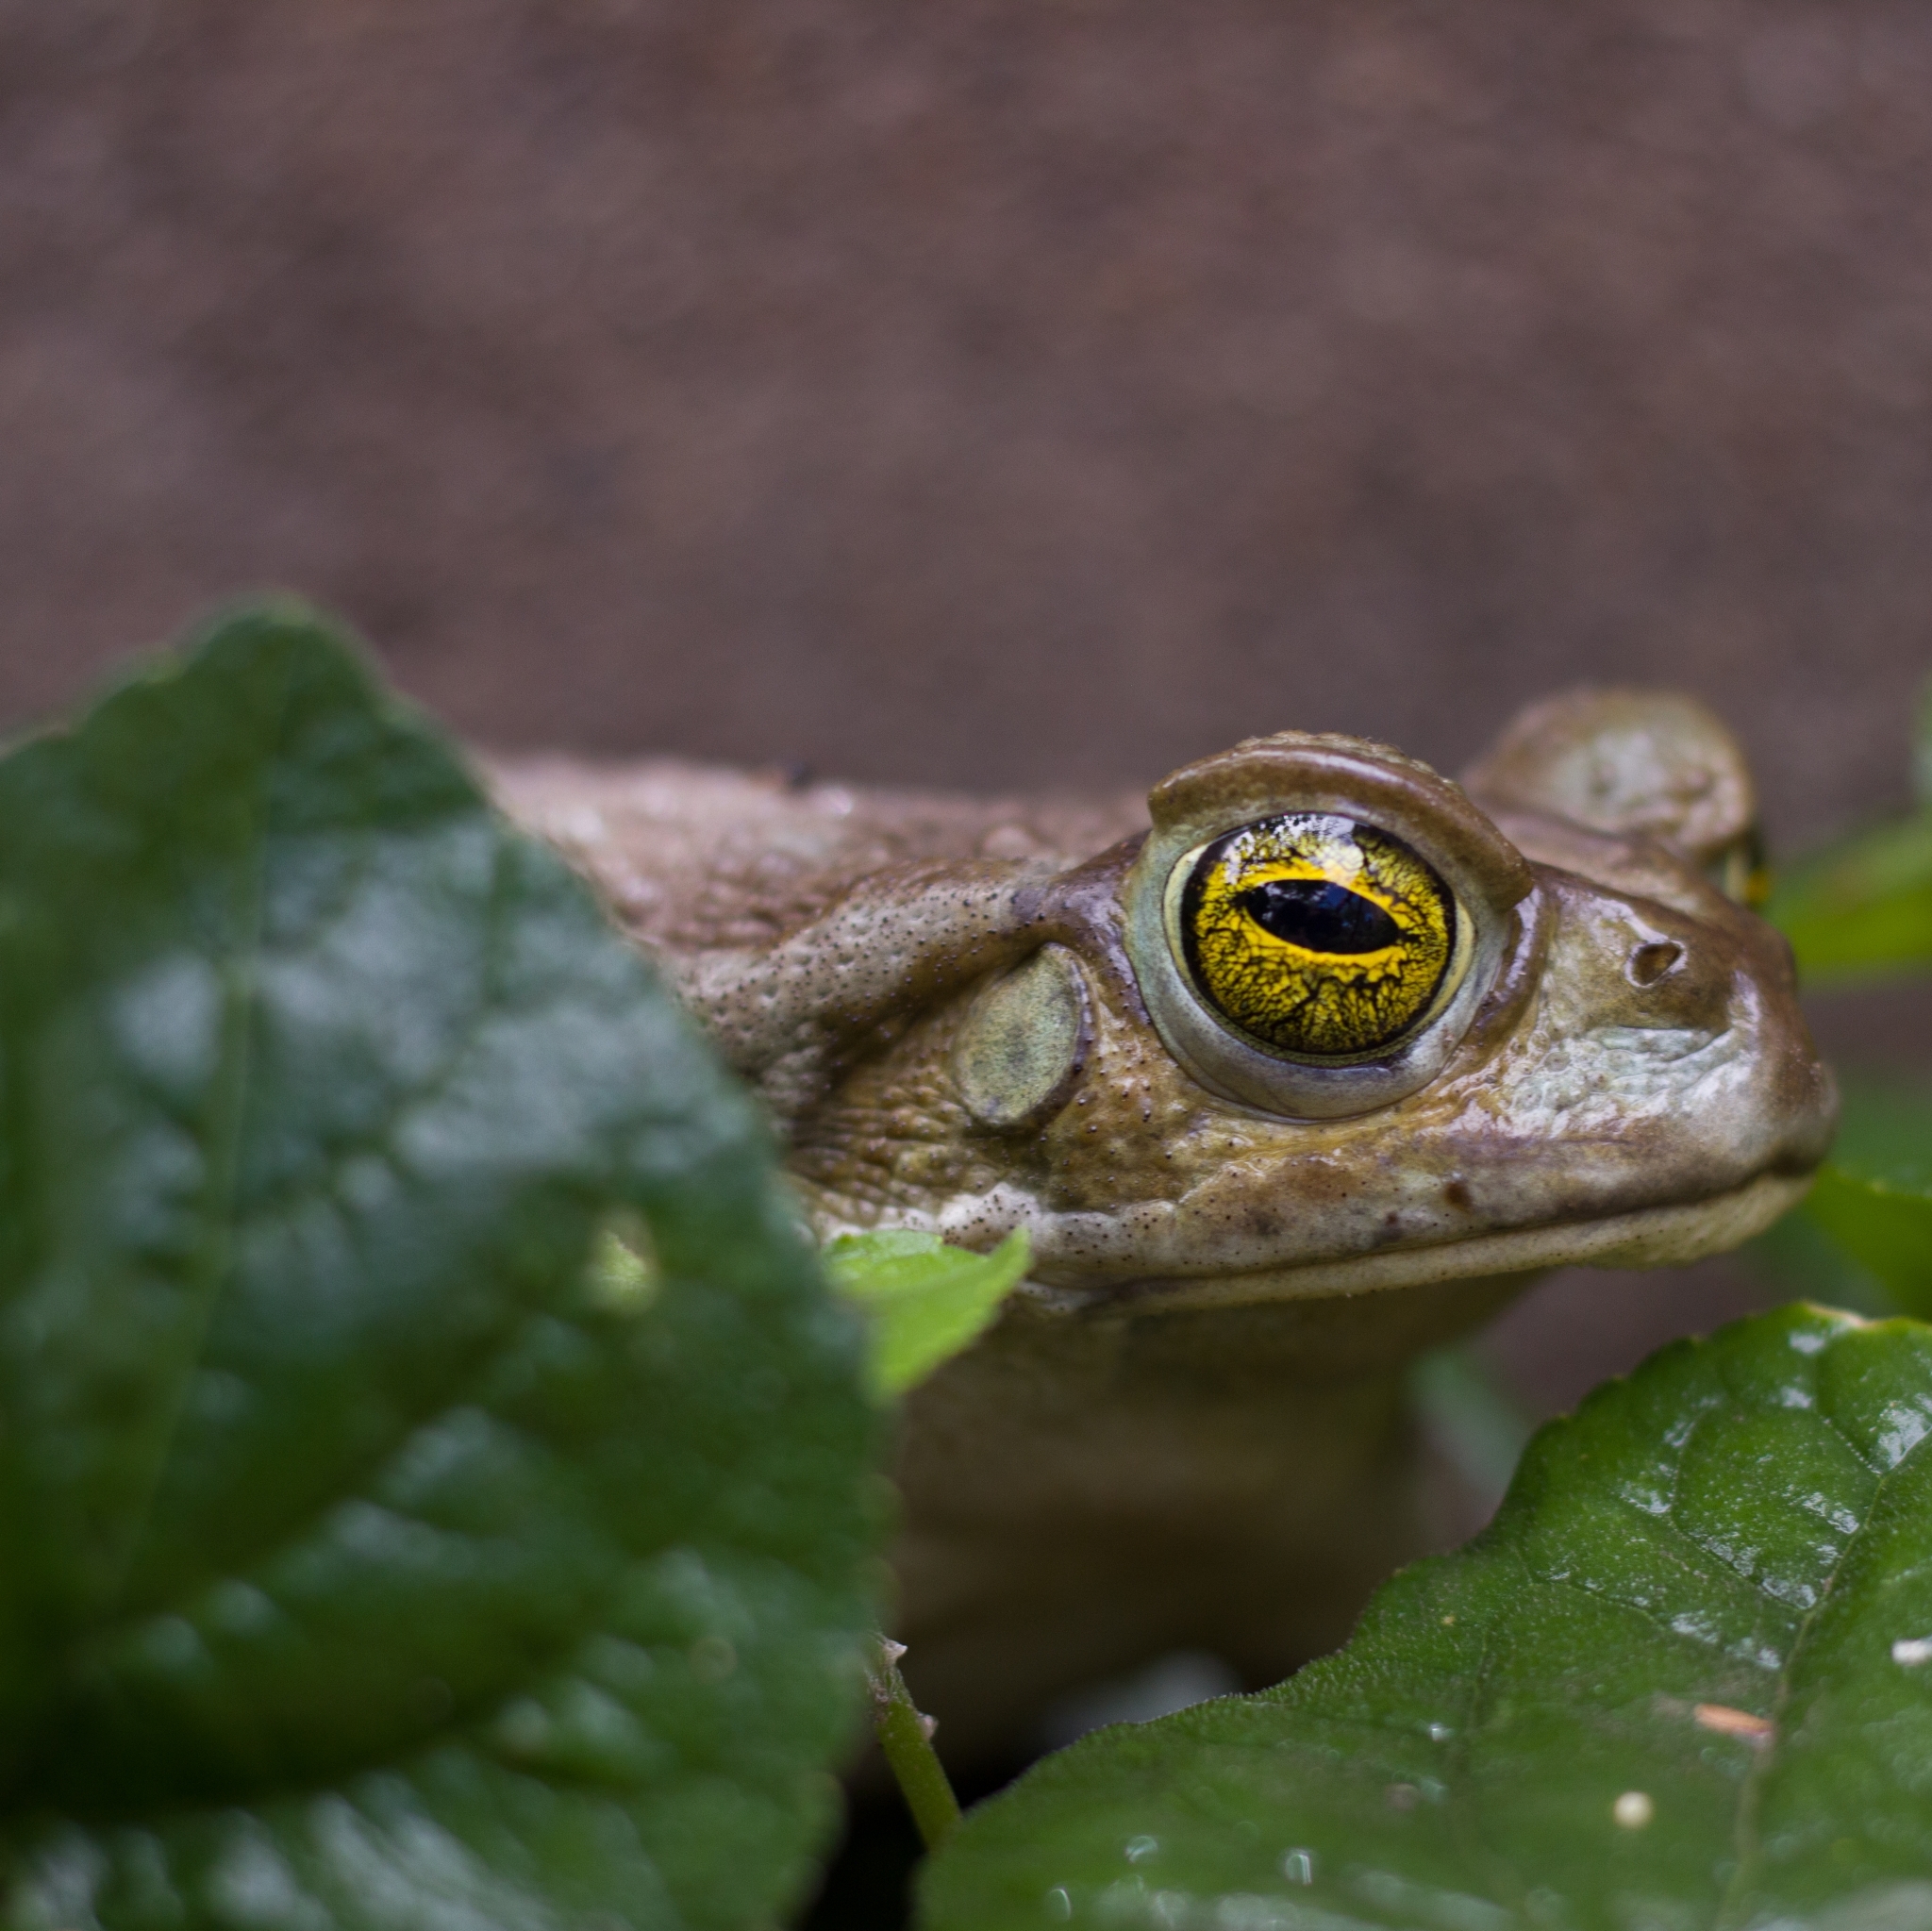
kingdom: Animalia
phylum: Chordata
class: Amphibia
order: Anura
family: Bufonidae
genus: Rhinella
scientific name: Rhinella arenarum
